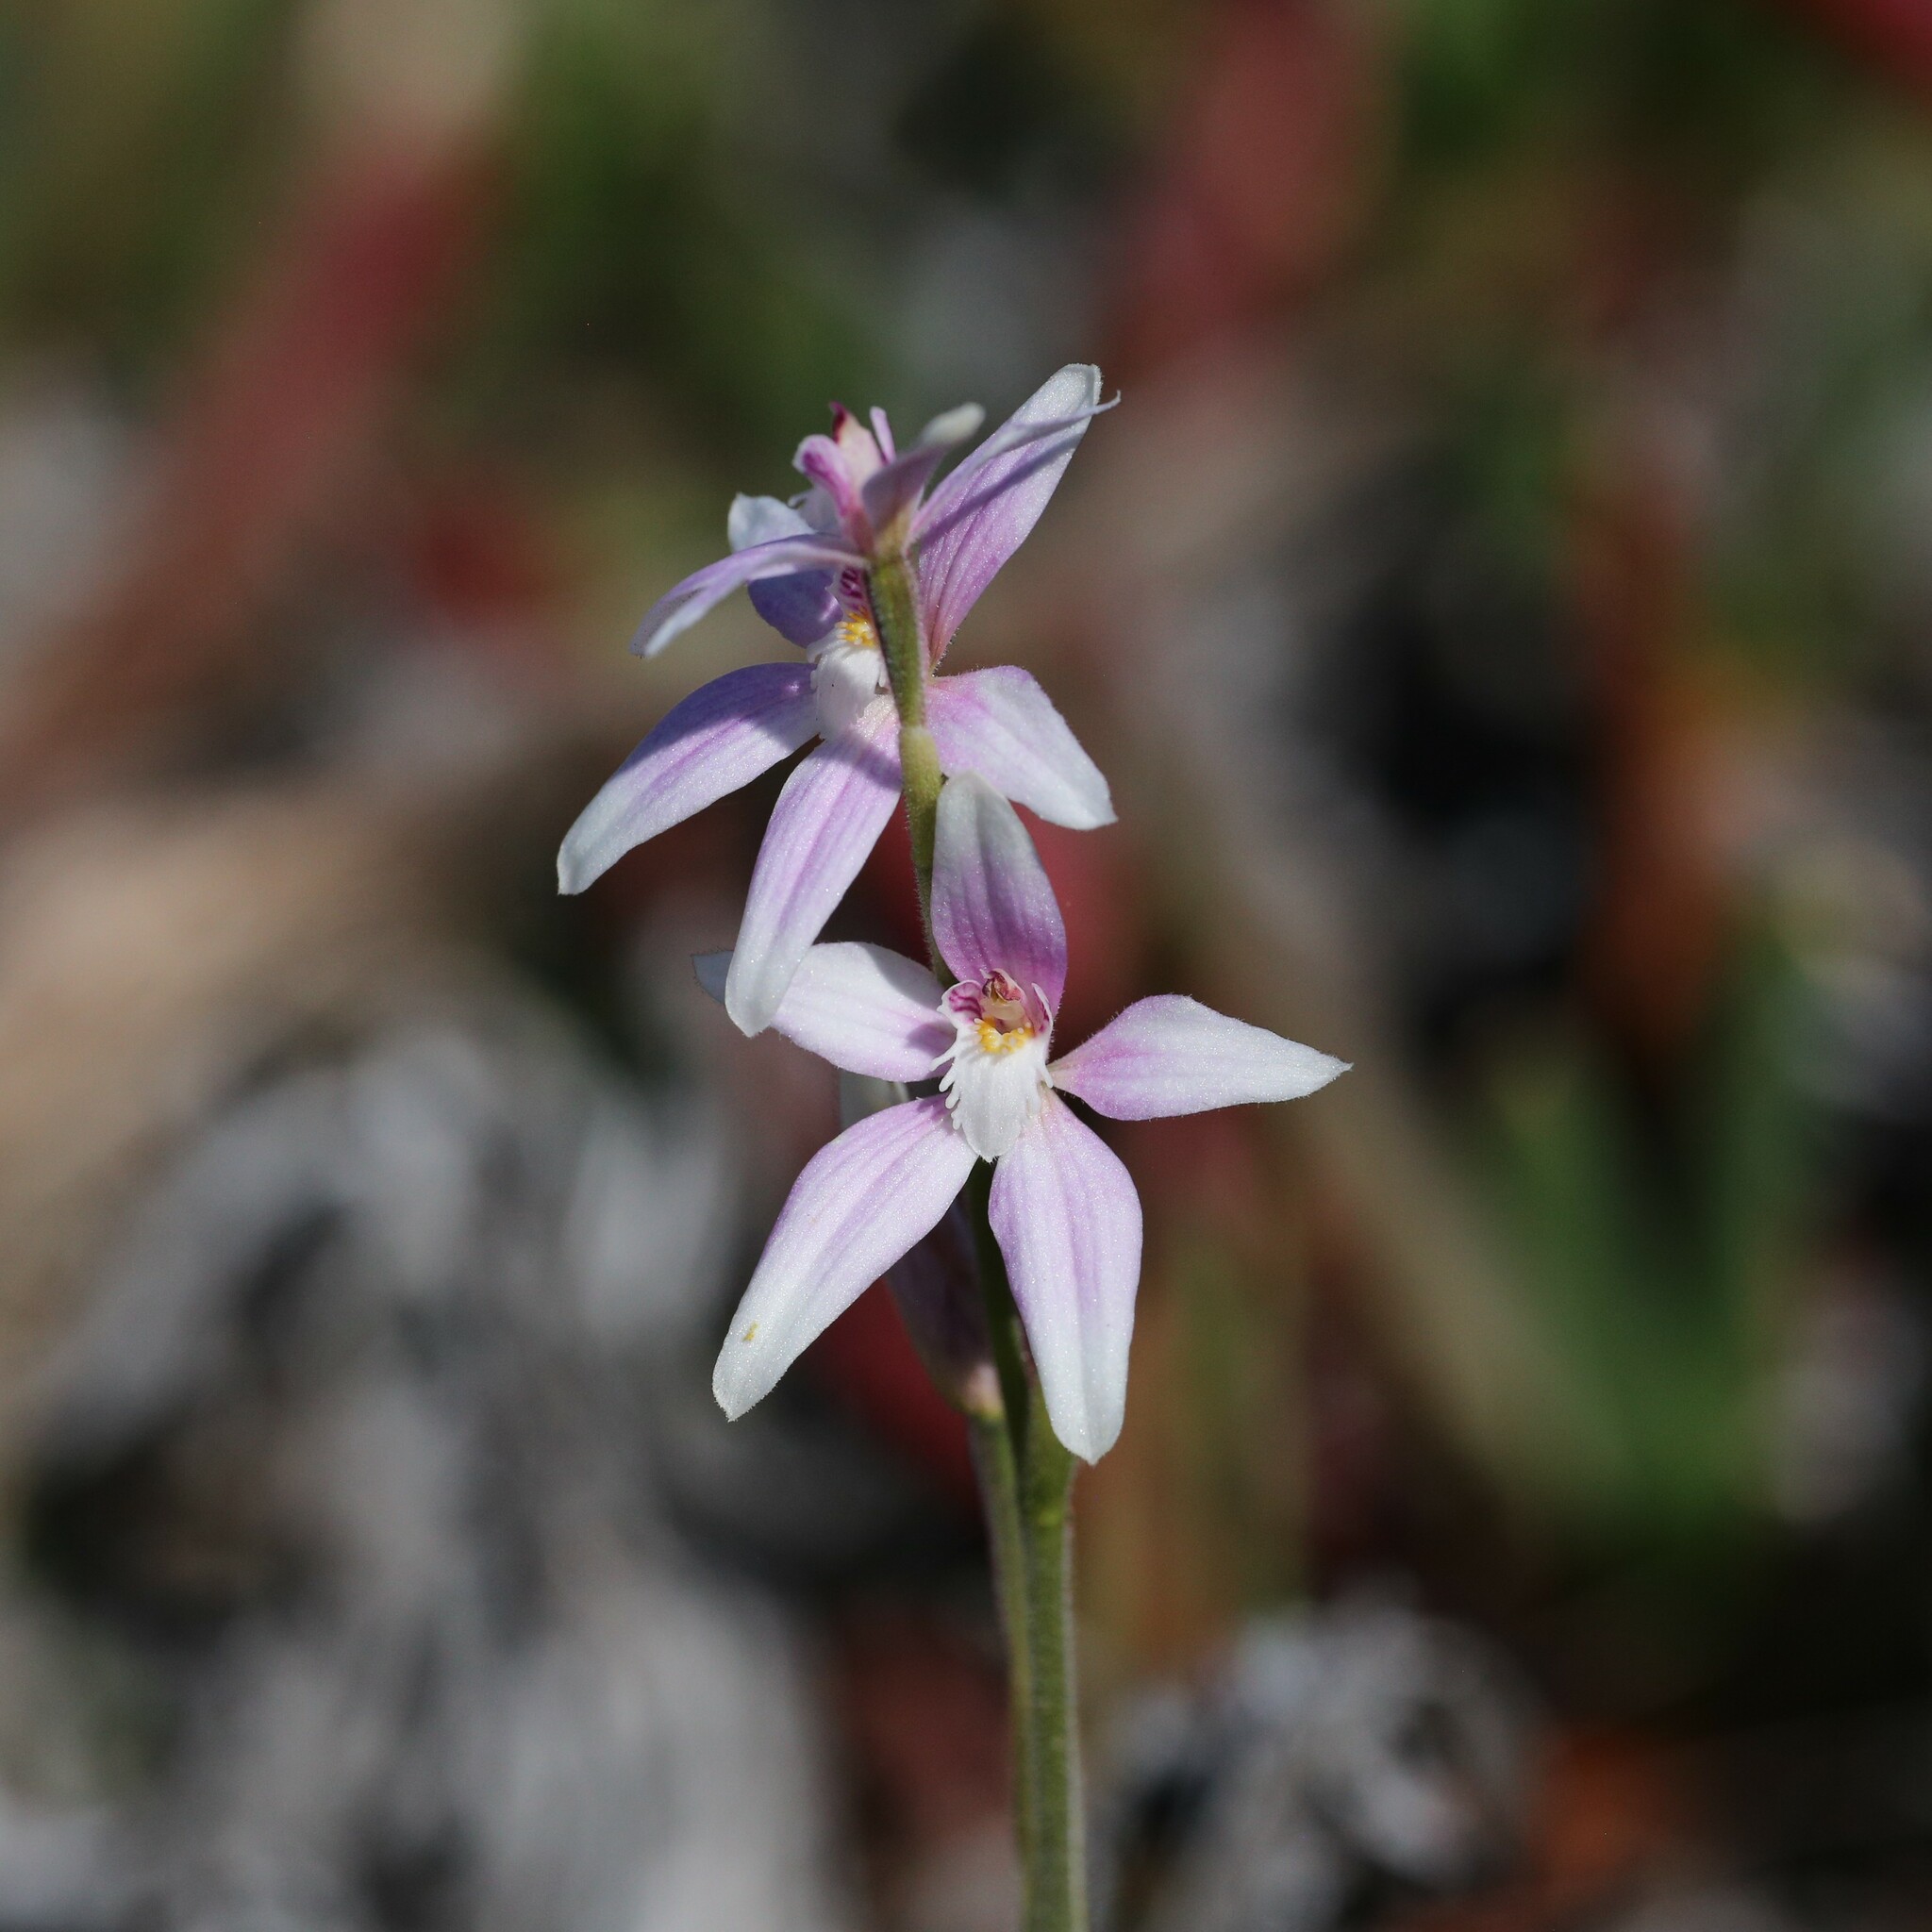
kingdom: Plantae
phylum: Tracheophyta
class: Liliopsida
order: Asparagales
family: Orchidaceae
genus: Caladenia
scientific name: Caladenia latifolia
